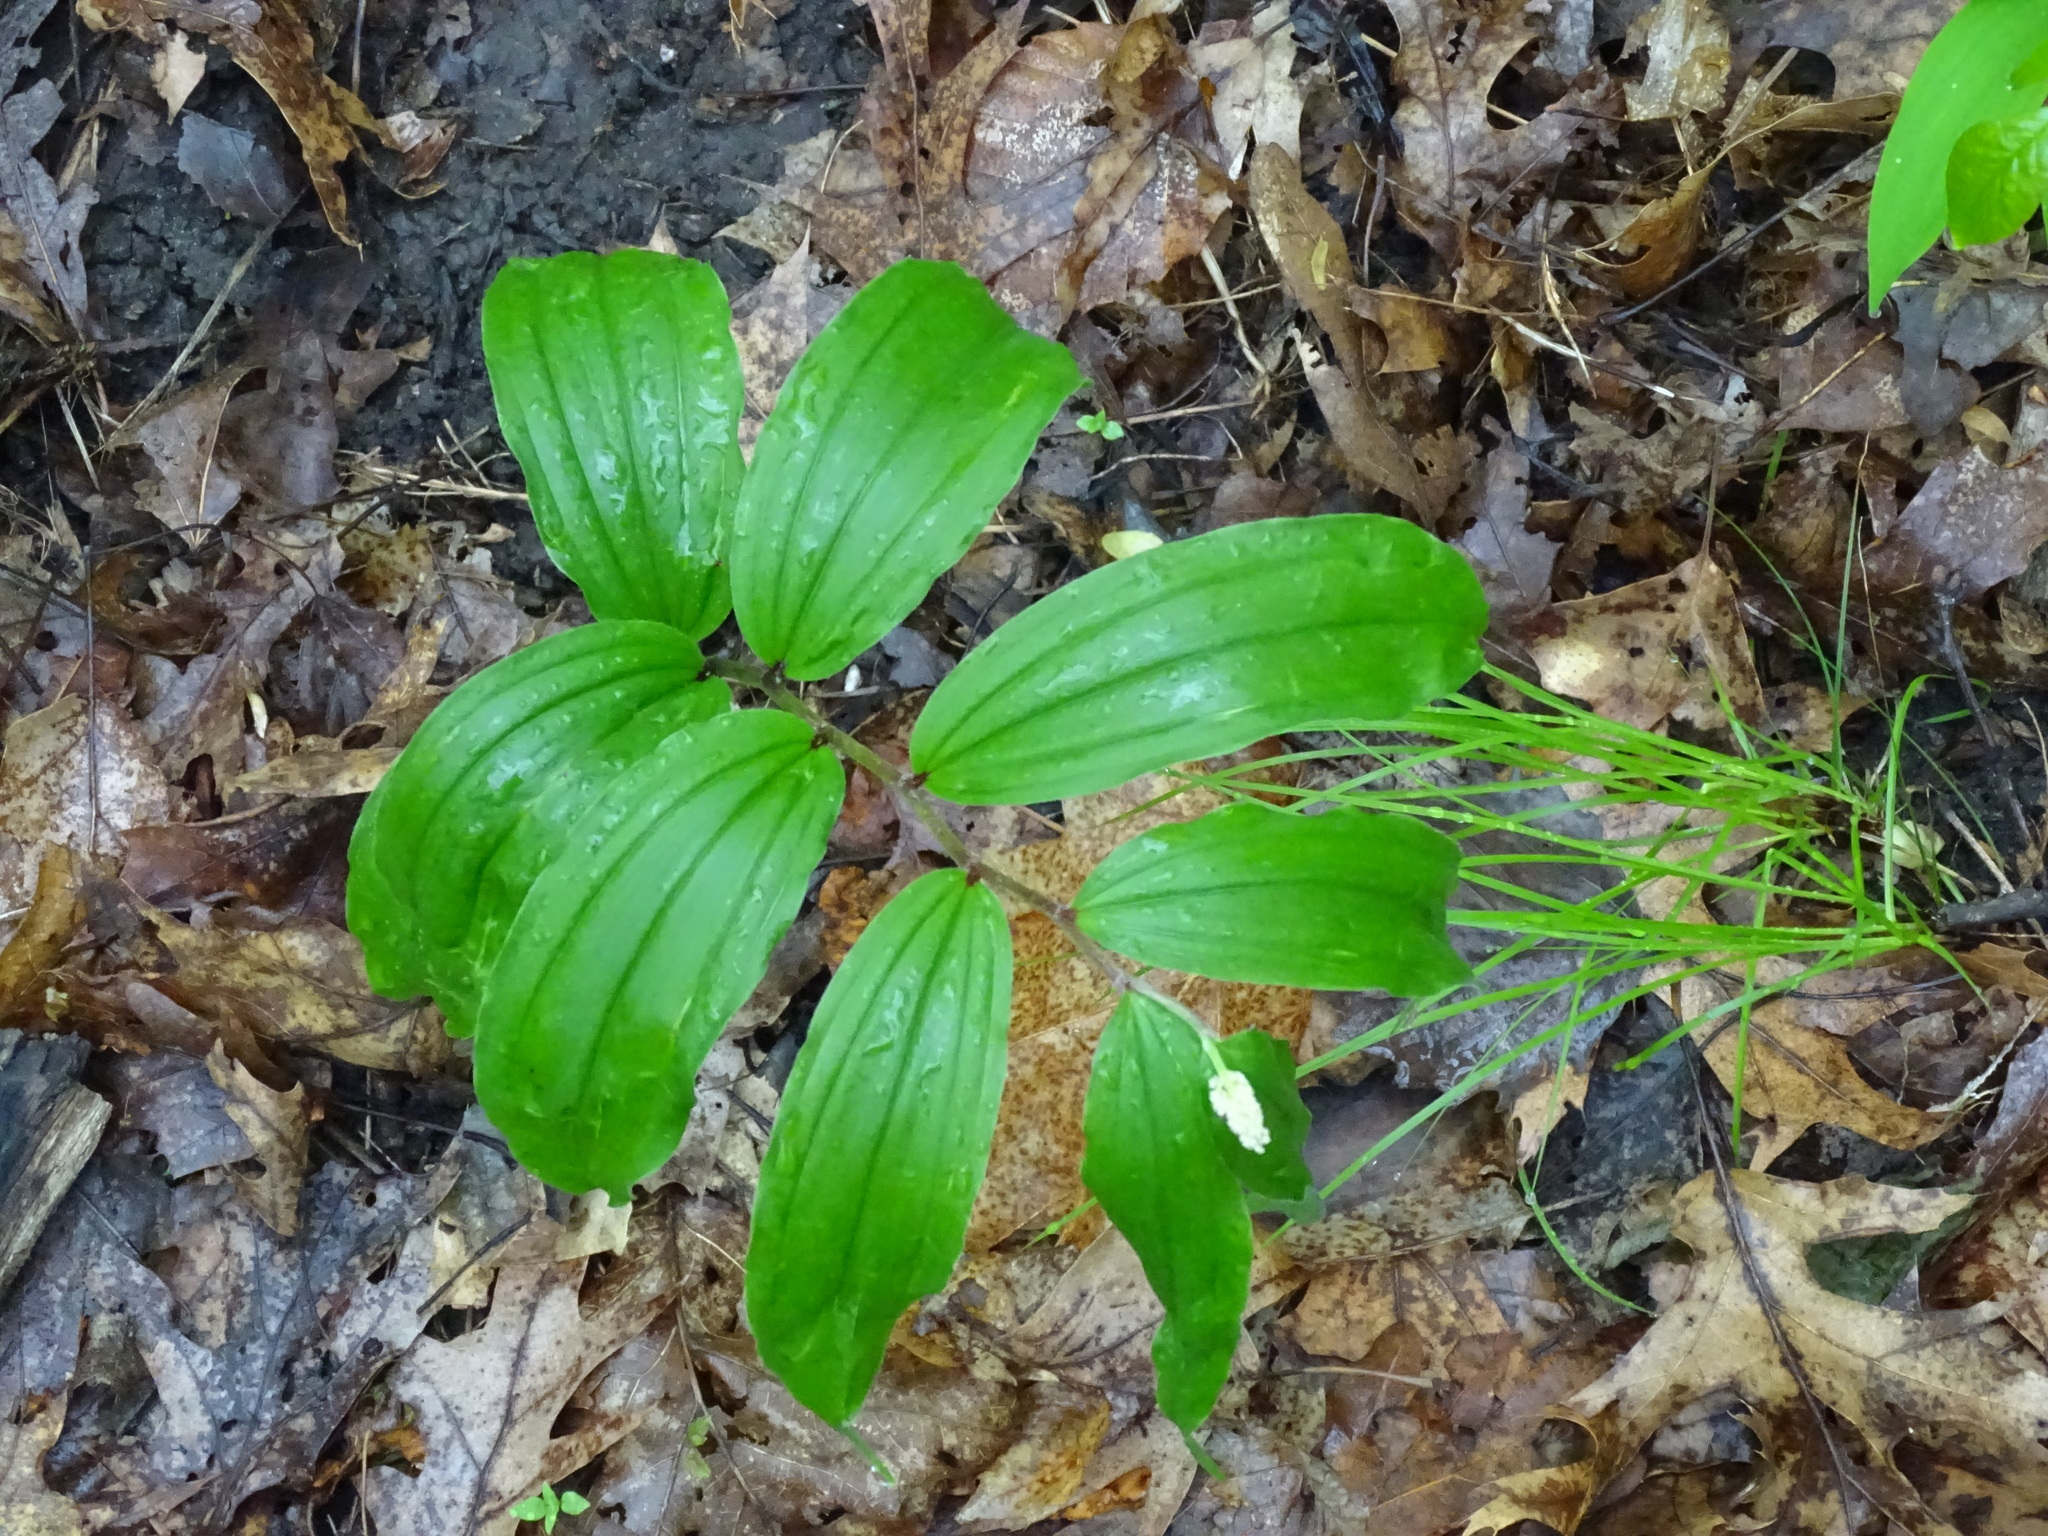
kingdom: Plantae
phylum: Tracheophyta
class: Liliopsida
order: Asparagales
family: Asparagaceae
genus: Maianthemum
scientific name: Maianthemum racemosum
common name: False spikenard
